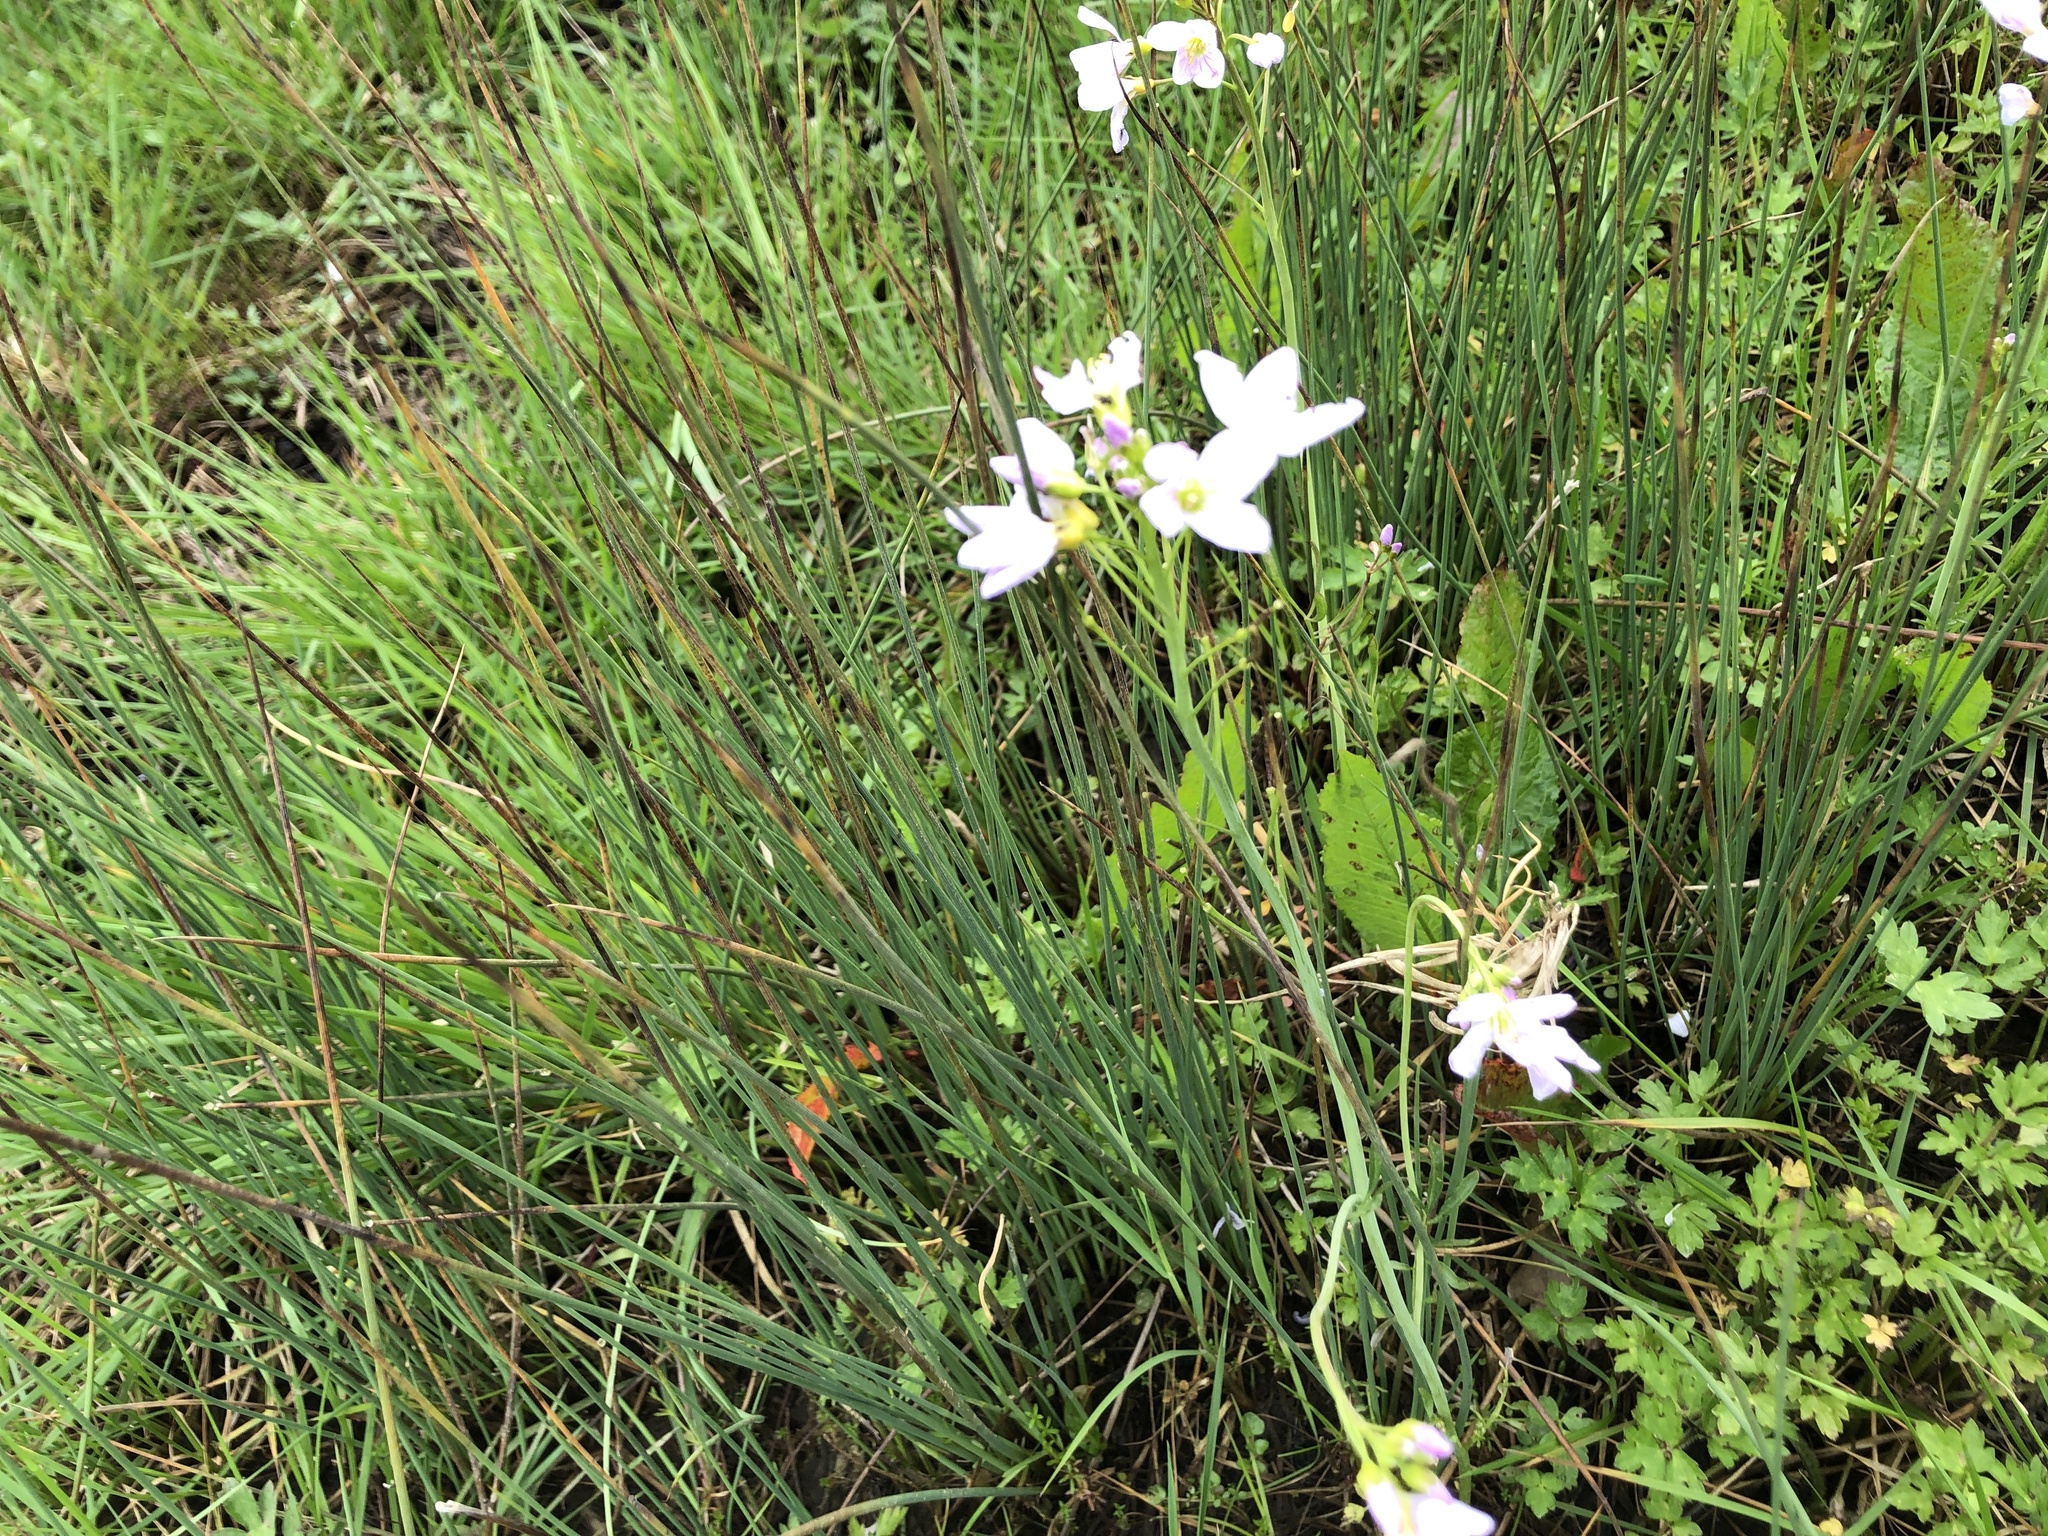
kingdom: Plantae
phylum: Tracheophyta
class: Magnoliopsida
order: Brassicales
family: Brassicaceae
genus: Cardamine
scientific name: Cardamine pratensis
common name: Cuckoo flower
